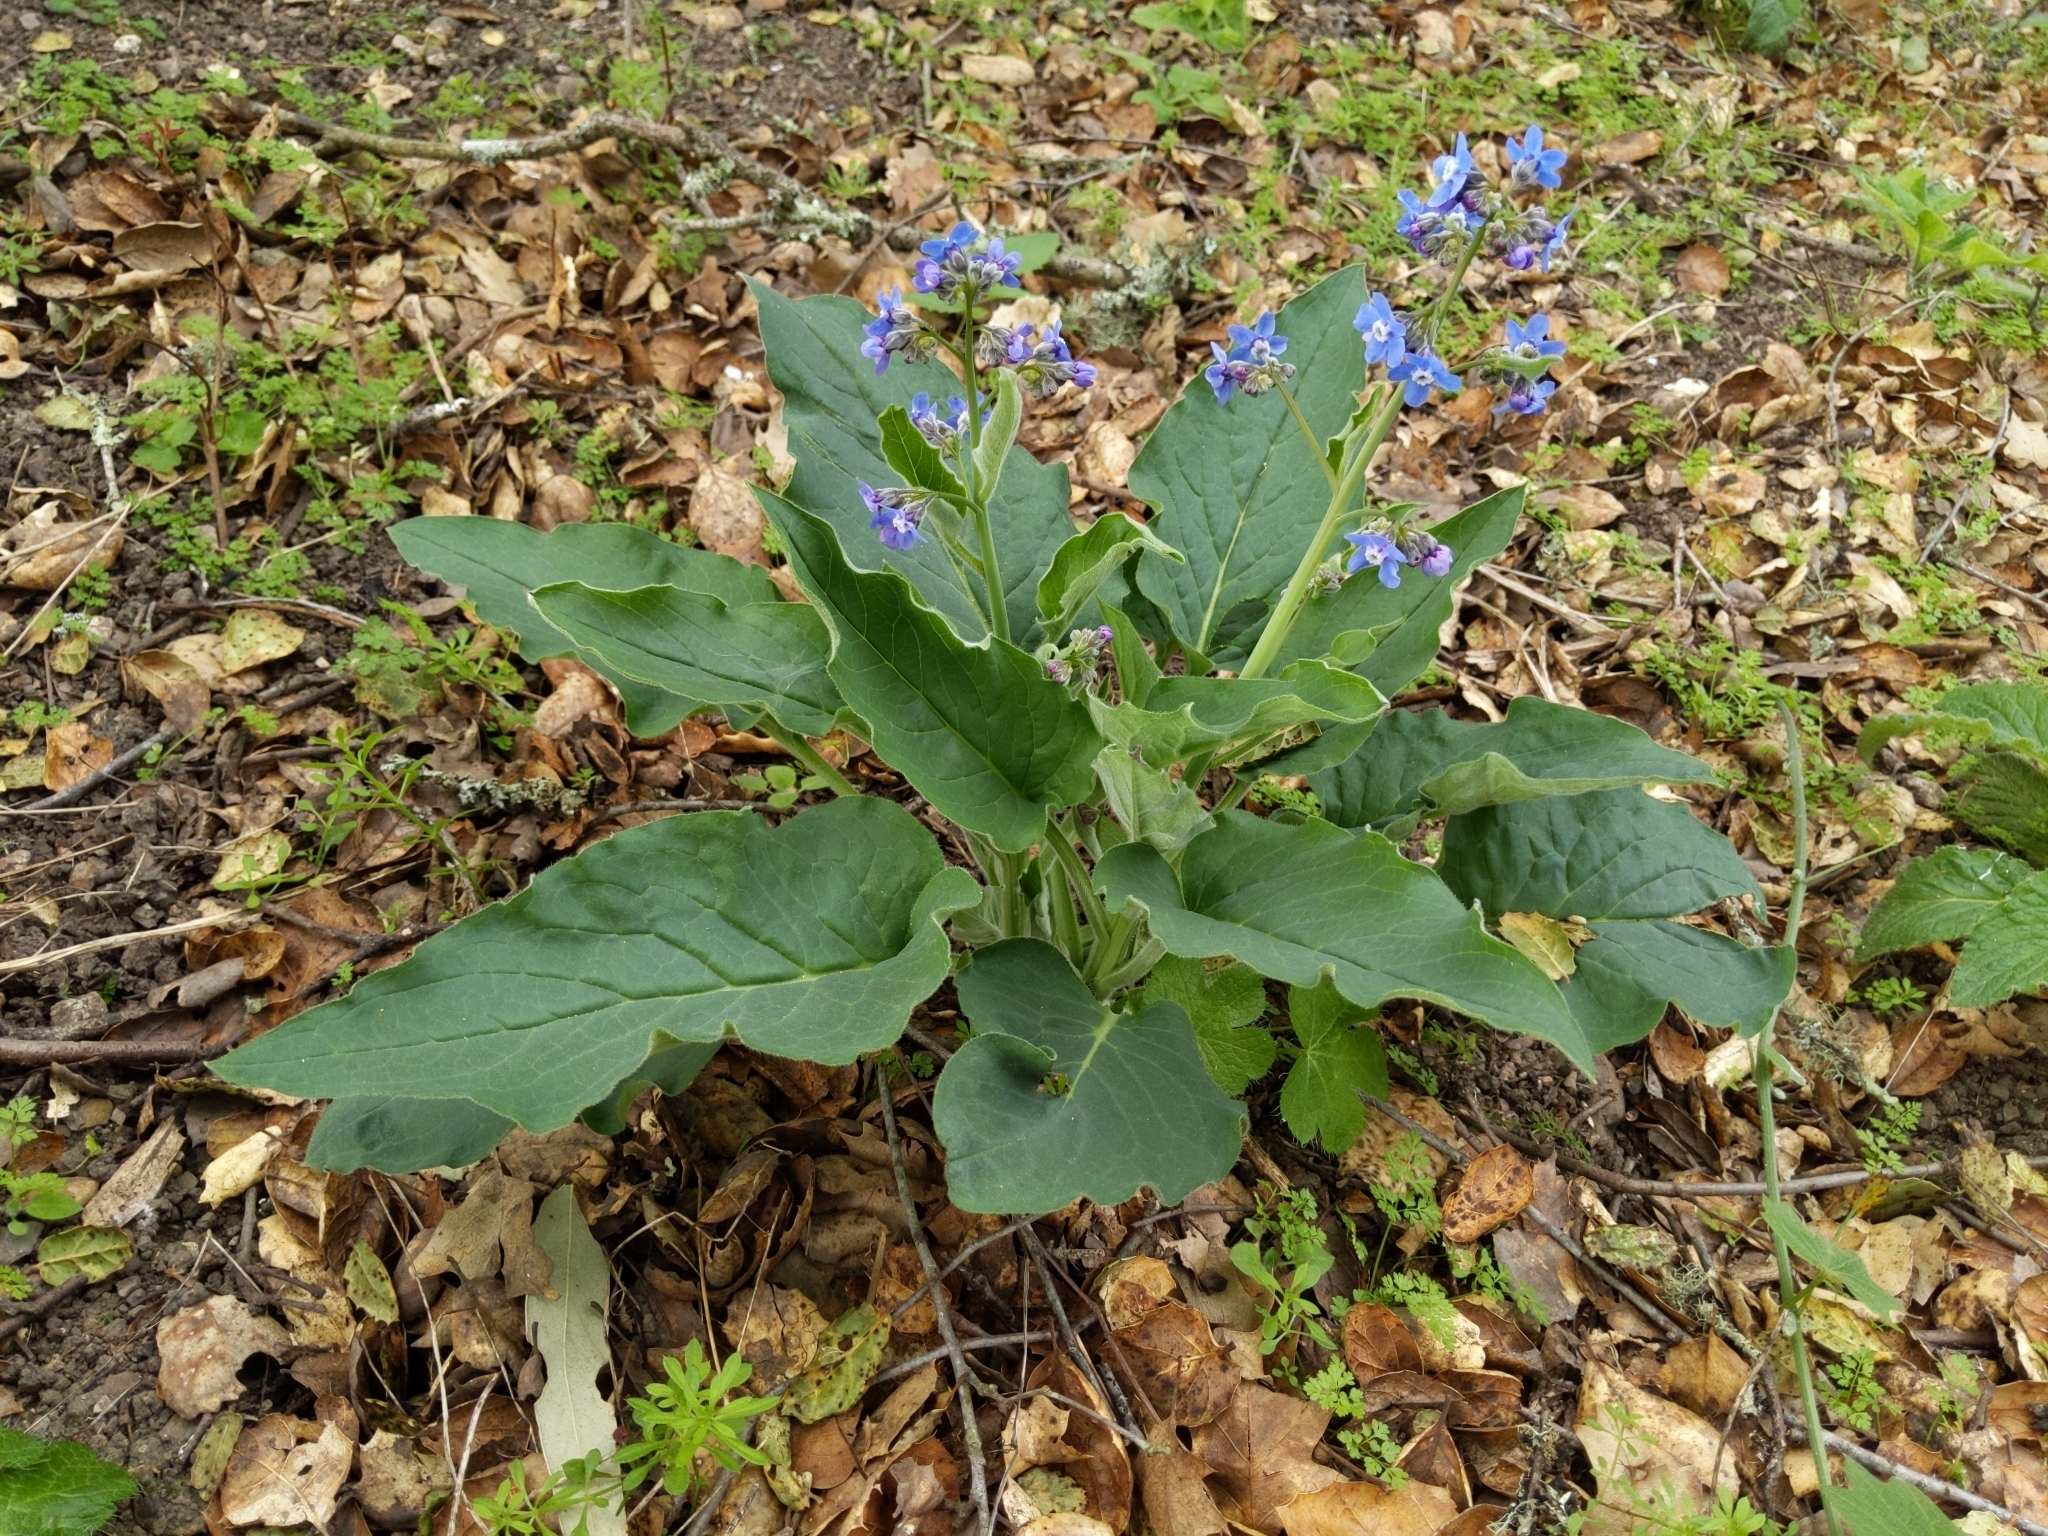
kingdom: Plantae
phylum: Tracheophyta
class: Magnoliopsida
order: Boraginales
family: Boraginaceae
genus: Adelinia
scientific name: Adelinia grande
